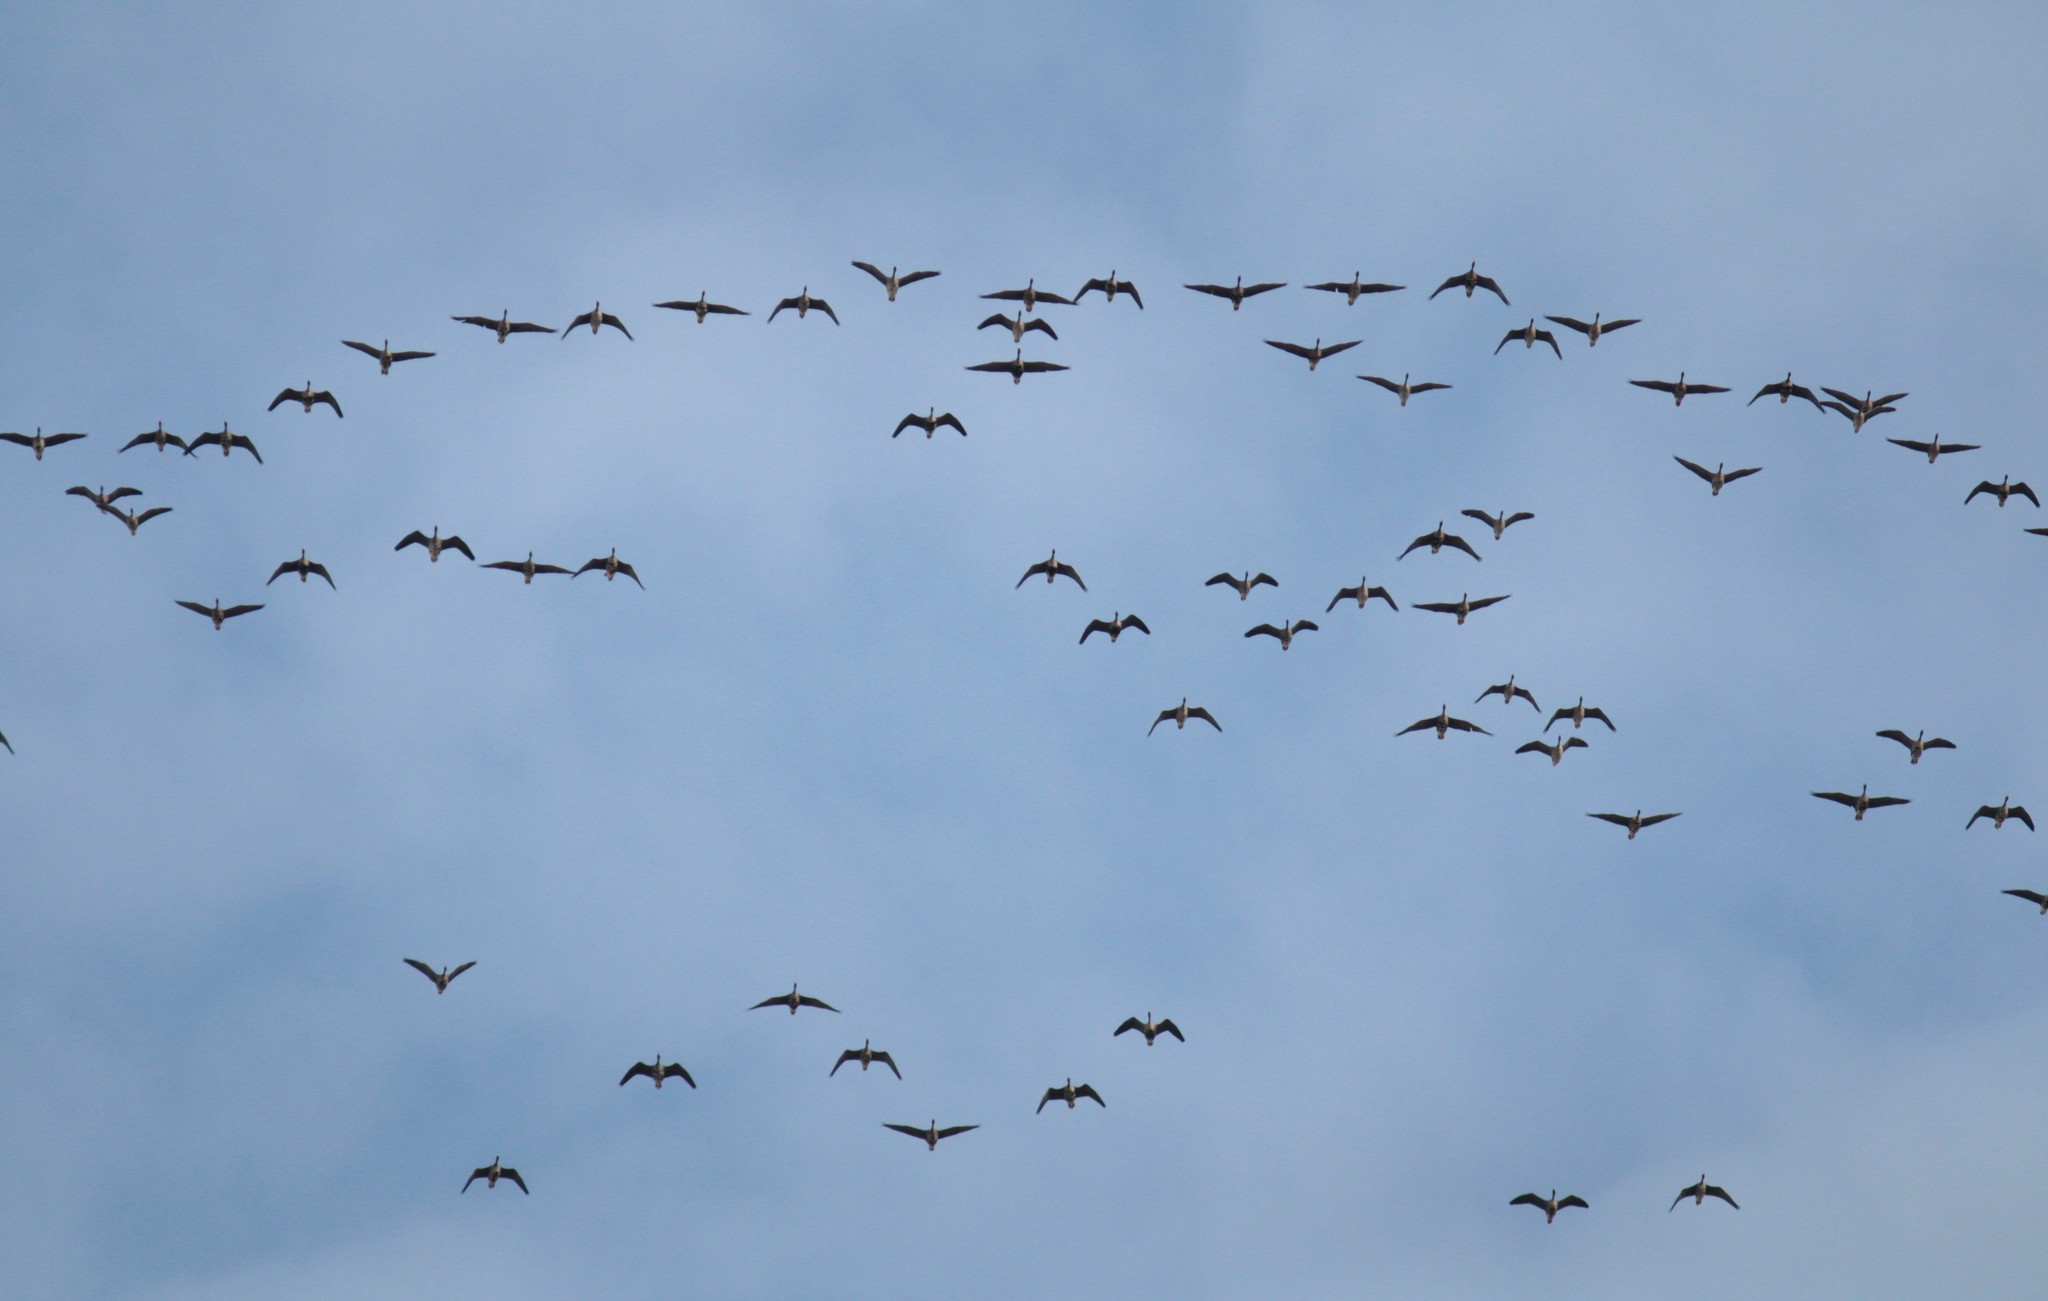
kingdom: Animalia
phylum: Chordata
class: Aves
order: Anseriformes
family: Anatidae
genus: Anser
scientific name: Anser albifrons
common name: Greater white-fronted goose
